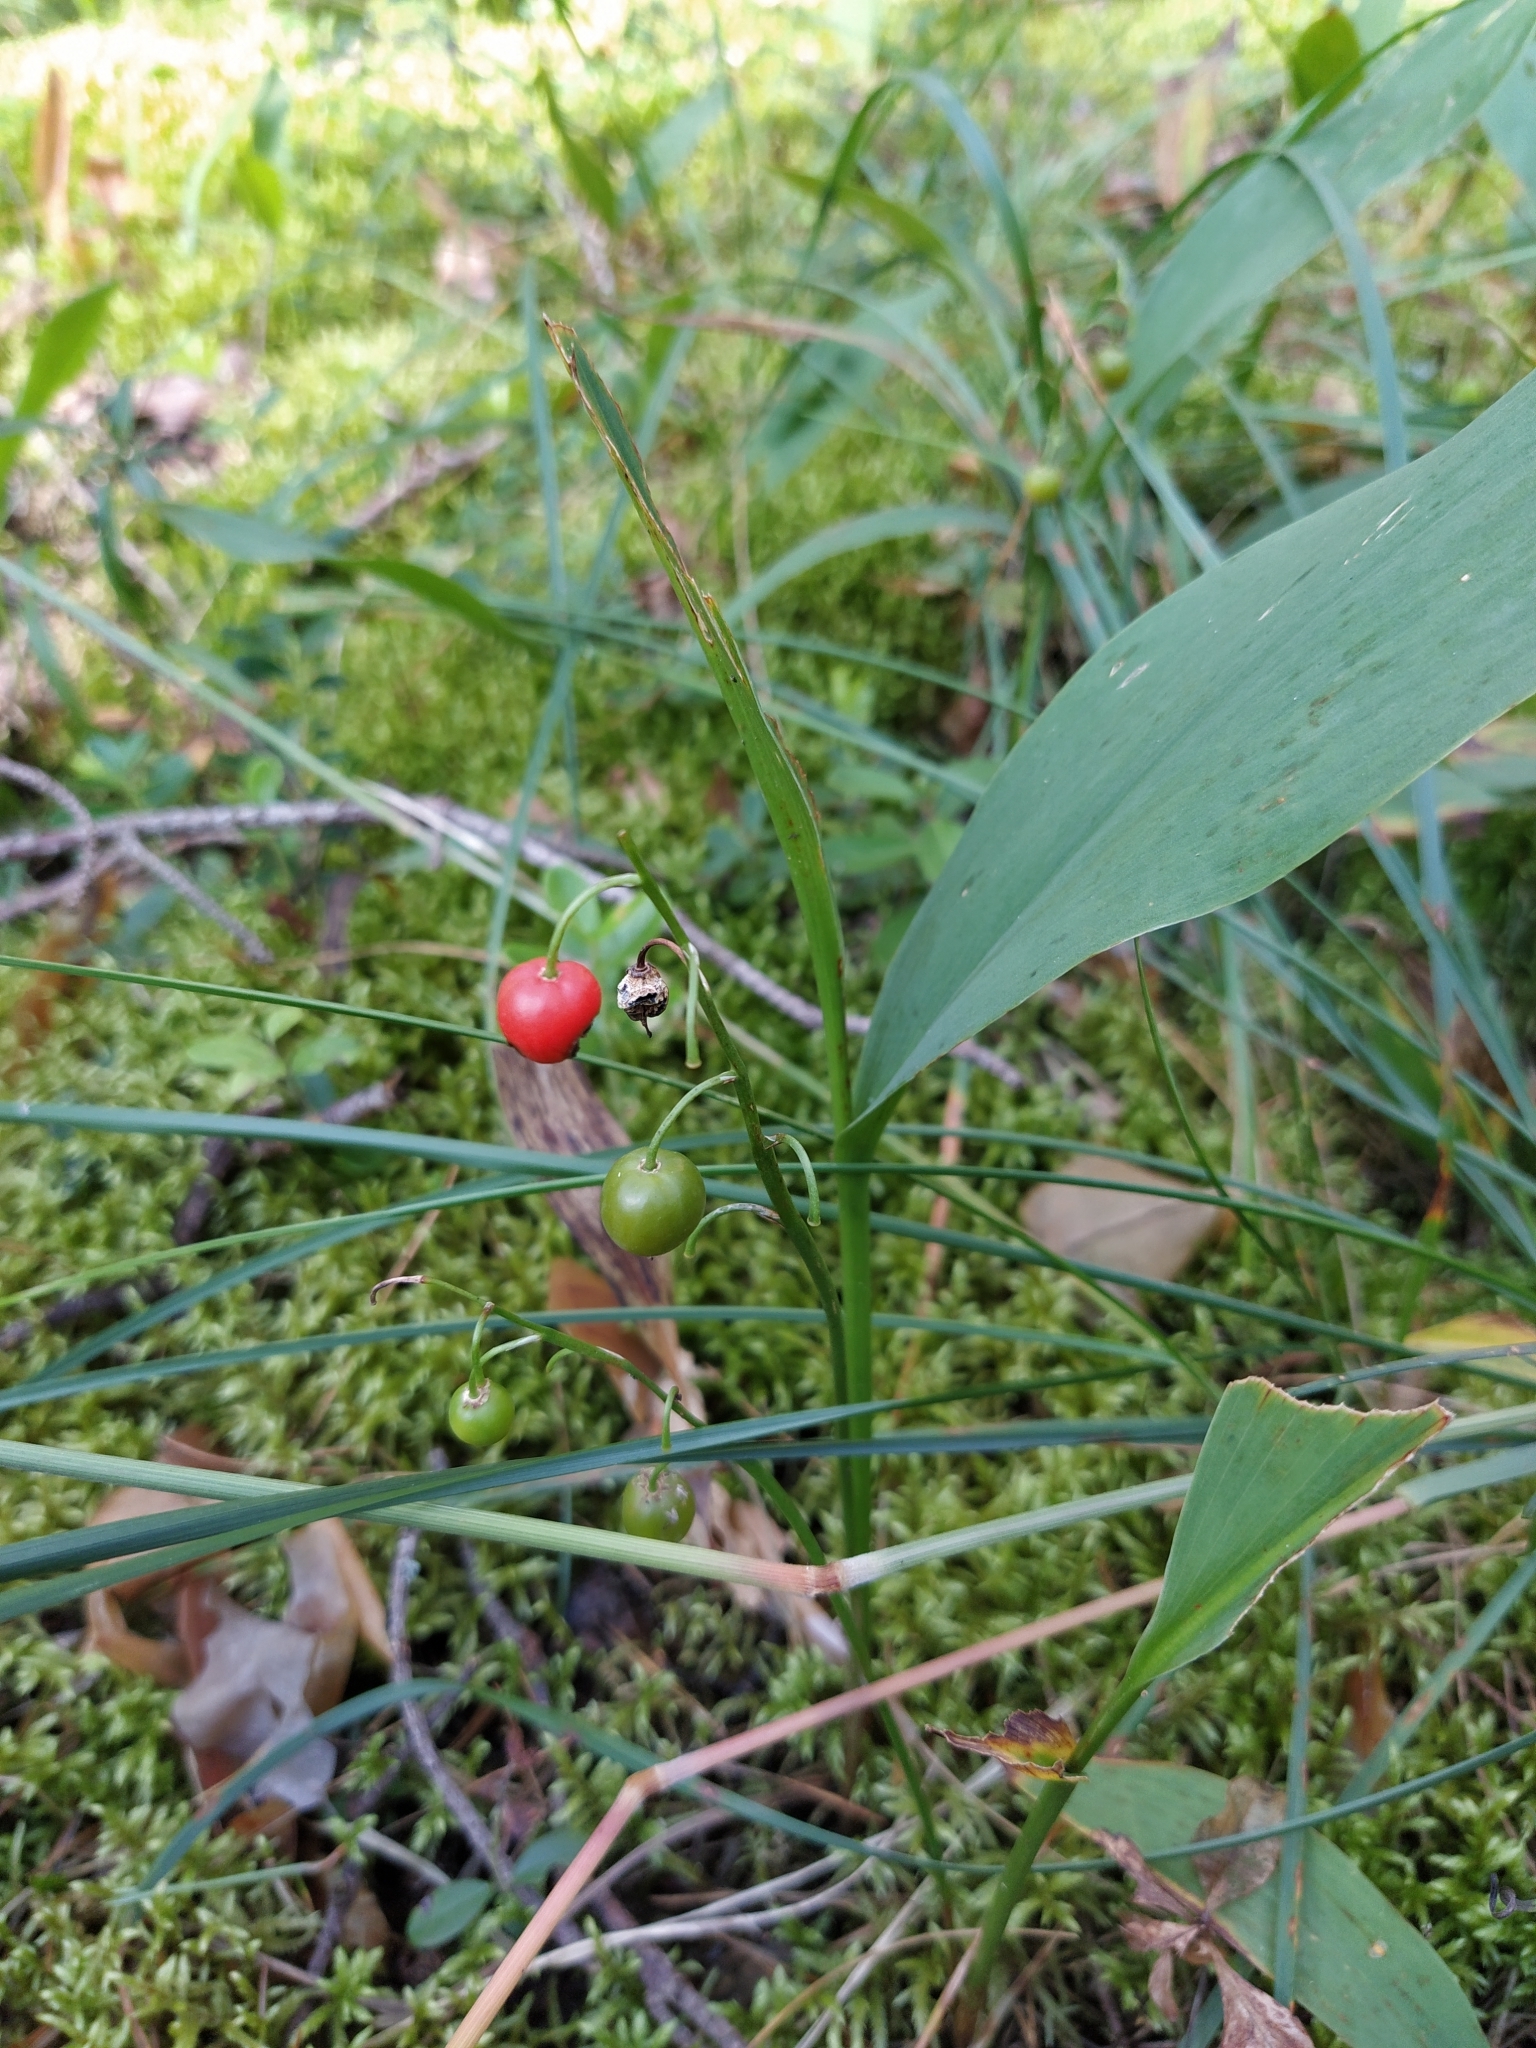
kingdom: Plantae
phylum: Tracheophyta
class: Liliopsida
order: Asparagales
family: Asparagaceae
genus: Convallaria
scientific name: Convallaria majalis
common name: Lily-of-the-valley
